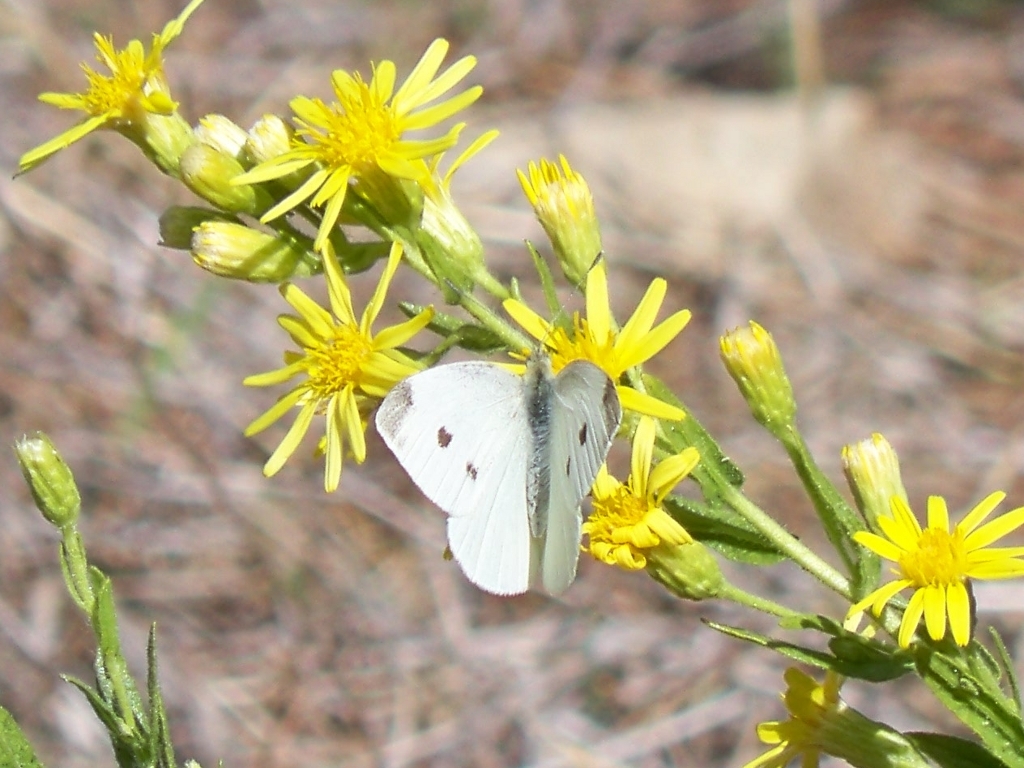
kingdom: Animalia
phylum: Arthropoda
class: Insecta
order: Lepidoptera
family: Pieridae
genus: Pieris
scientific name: Pieris rapae
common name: Small white
